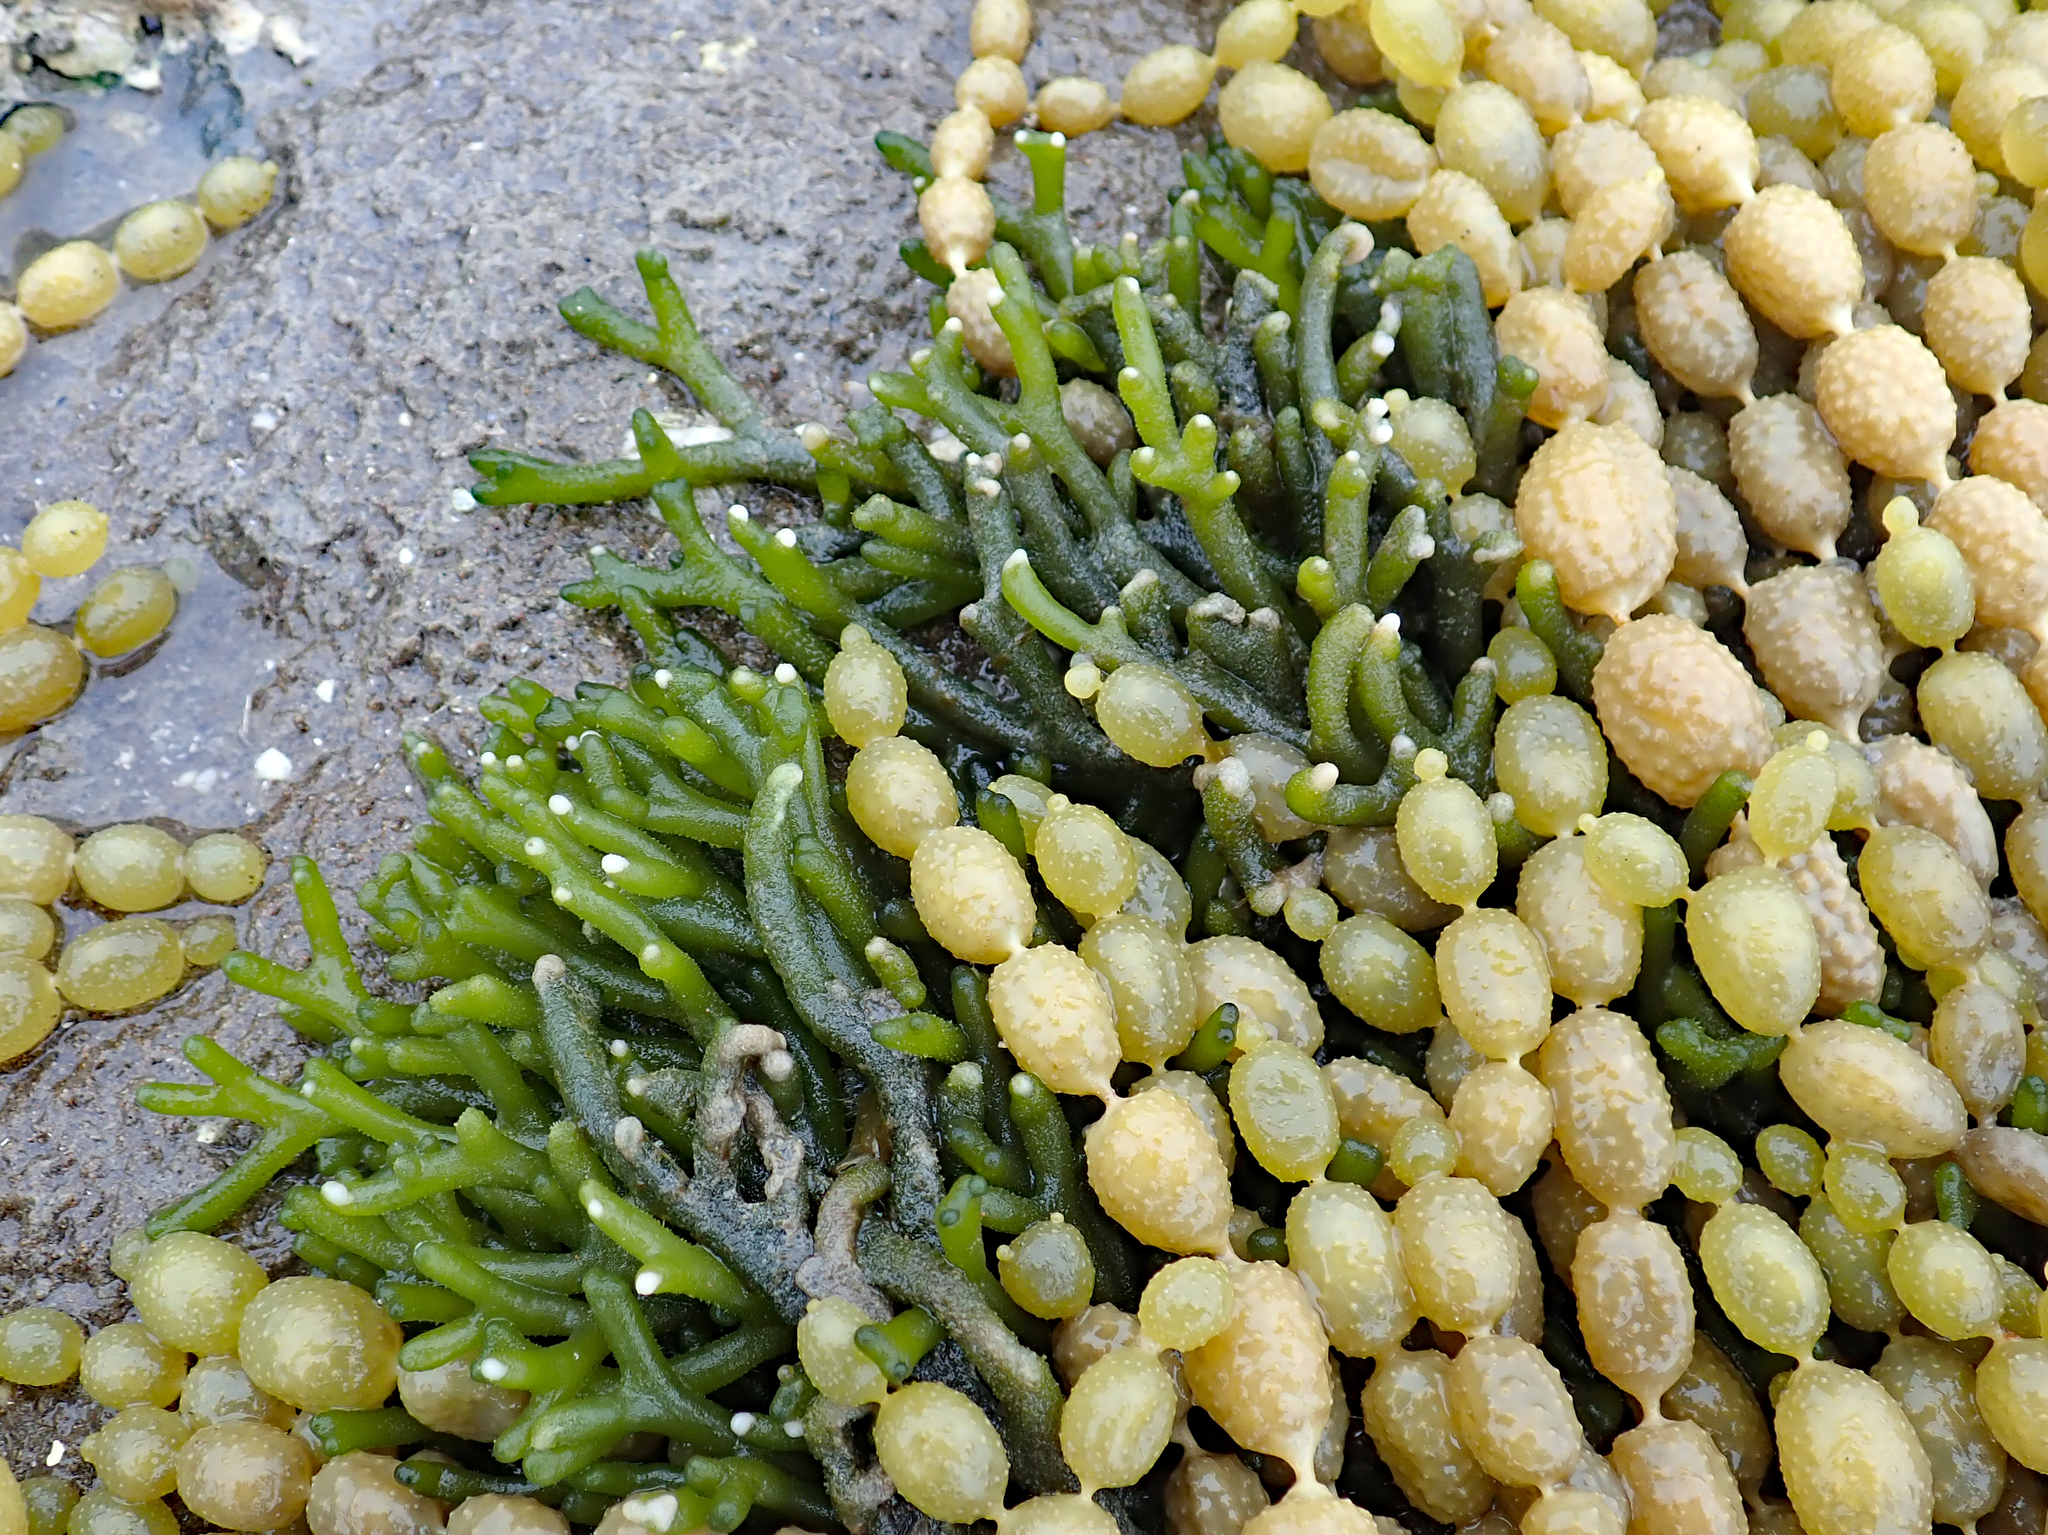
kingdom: Plantae
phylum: Chlorophyta
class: Ulvophyceae
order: Bryopsidales
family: Codiaceae
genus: Codium
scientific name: Codium fragile
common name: Dead man's fingers
